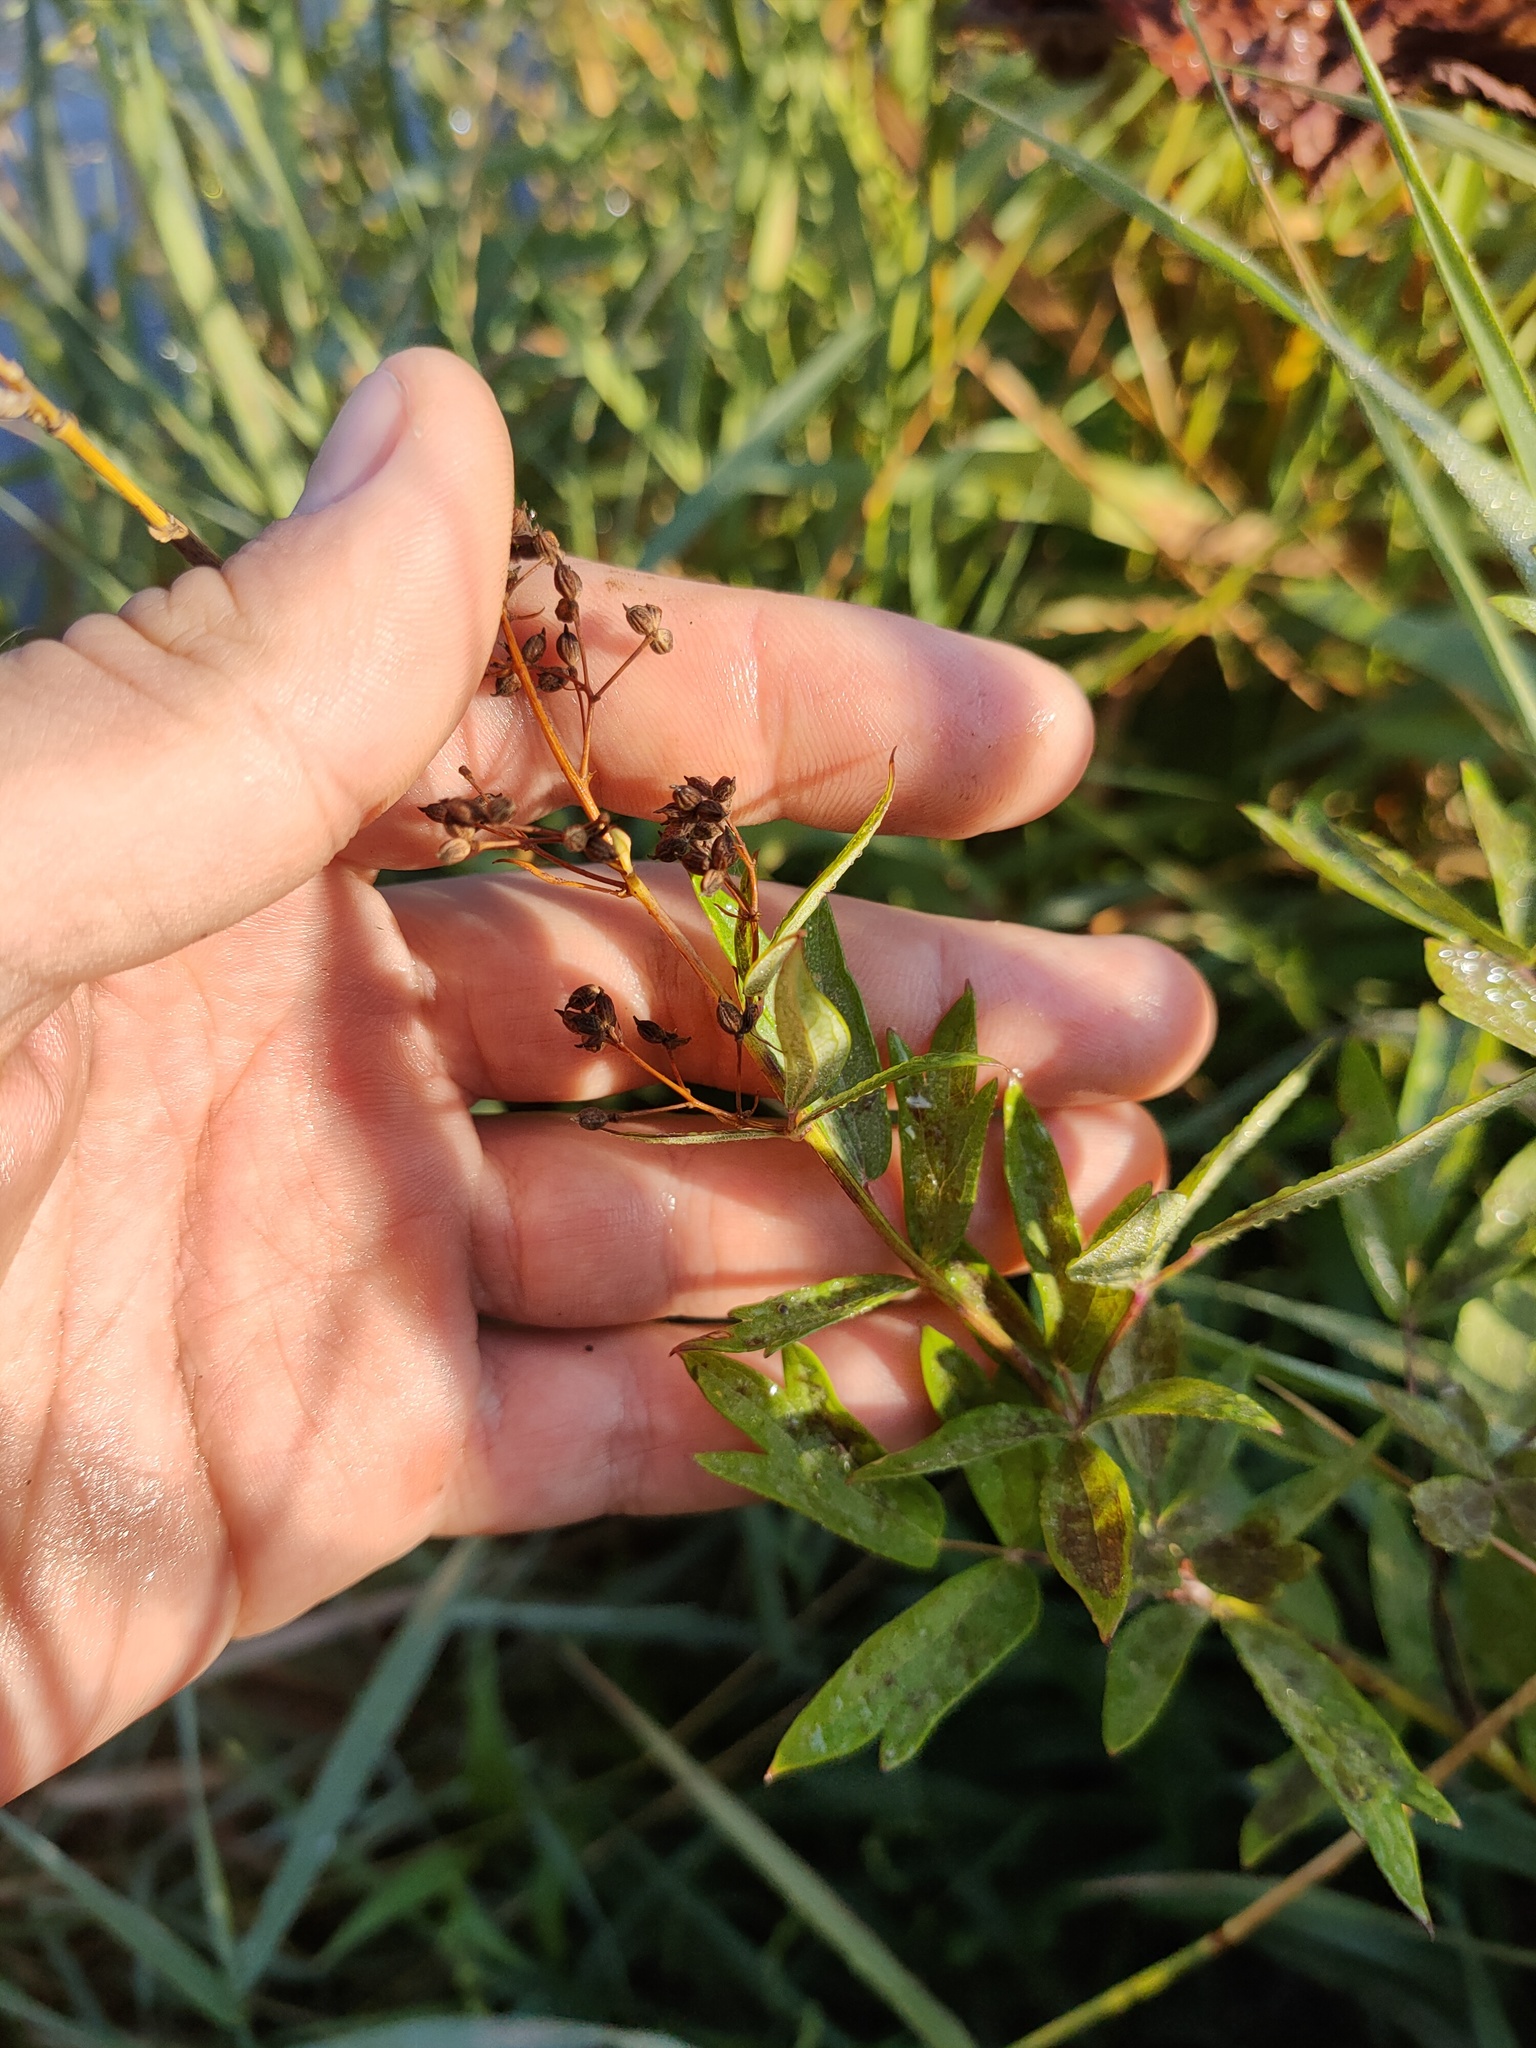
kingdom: Plantae
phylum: Tracheophyta
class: Magnoliopsida
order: Ranunculales
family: Ranunculaceae
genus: Thalictrum
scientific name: Thalictrum flavum
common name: Common meadow-rue
